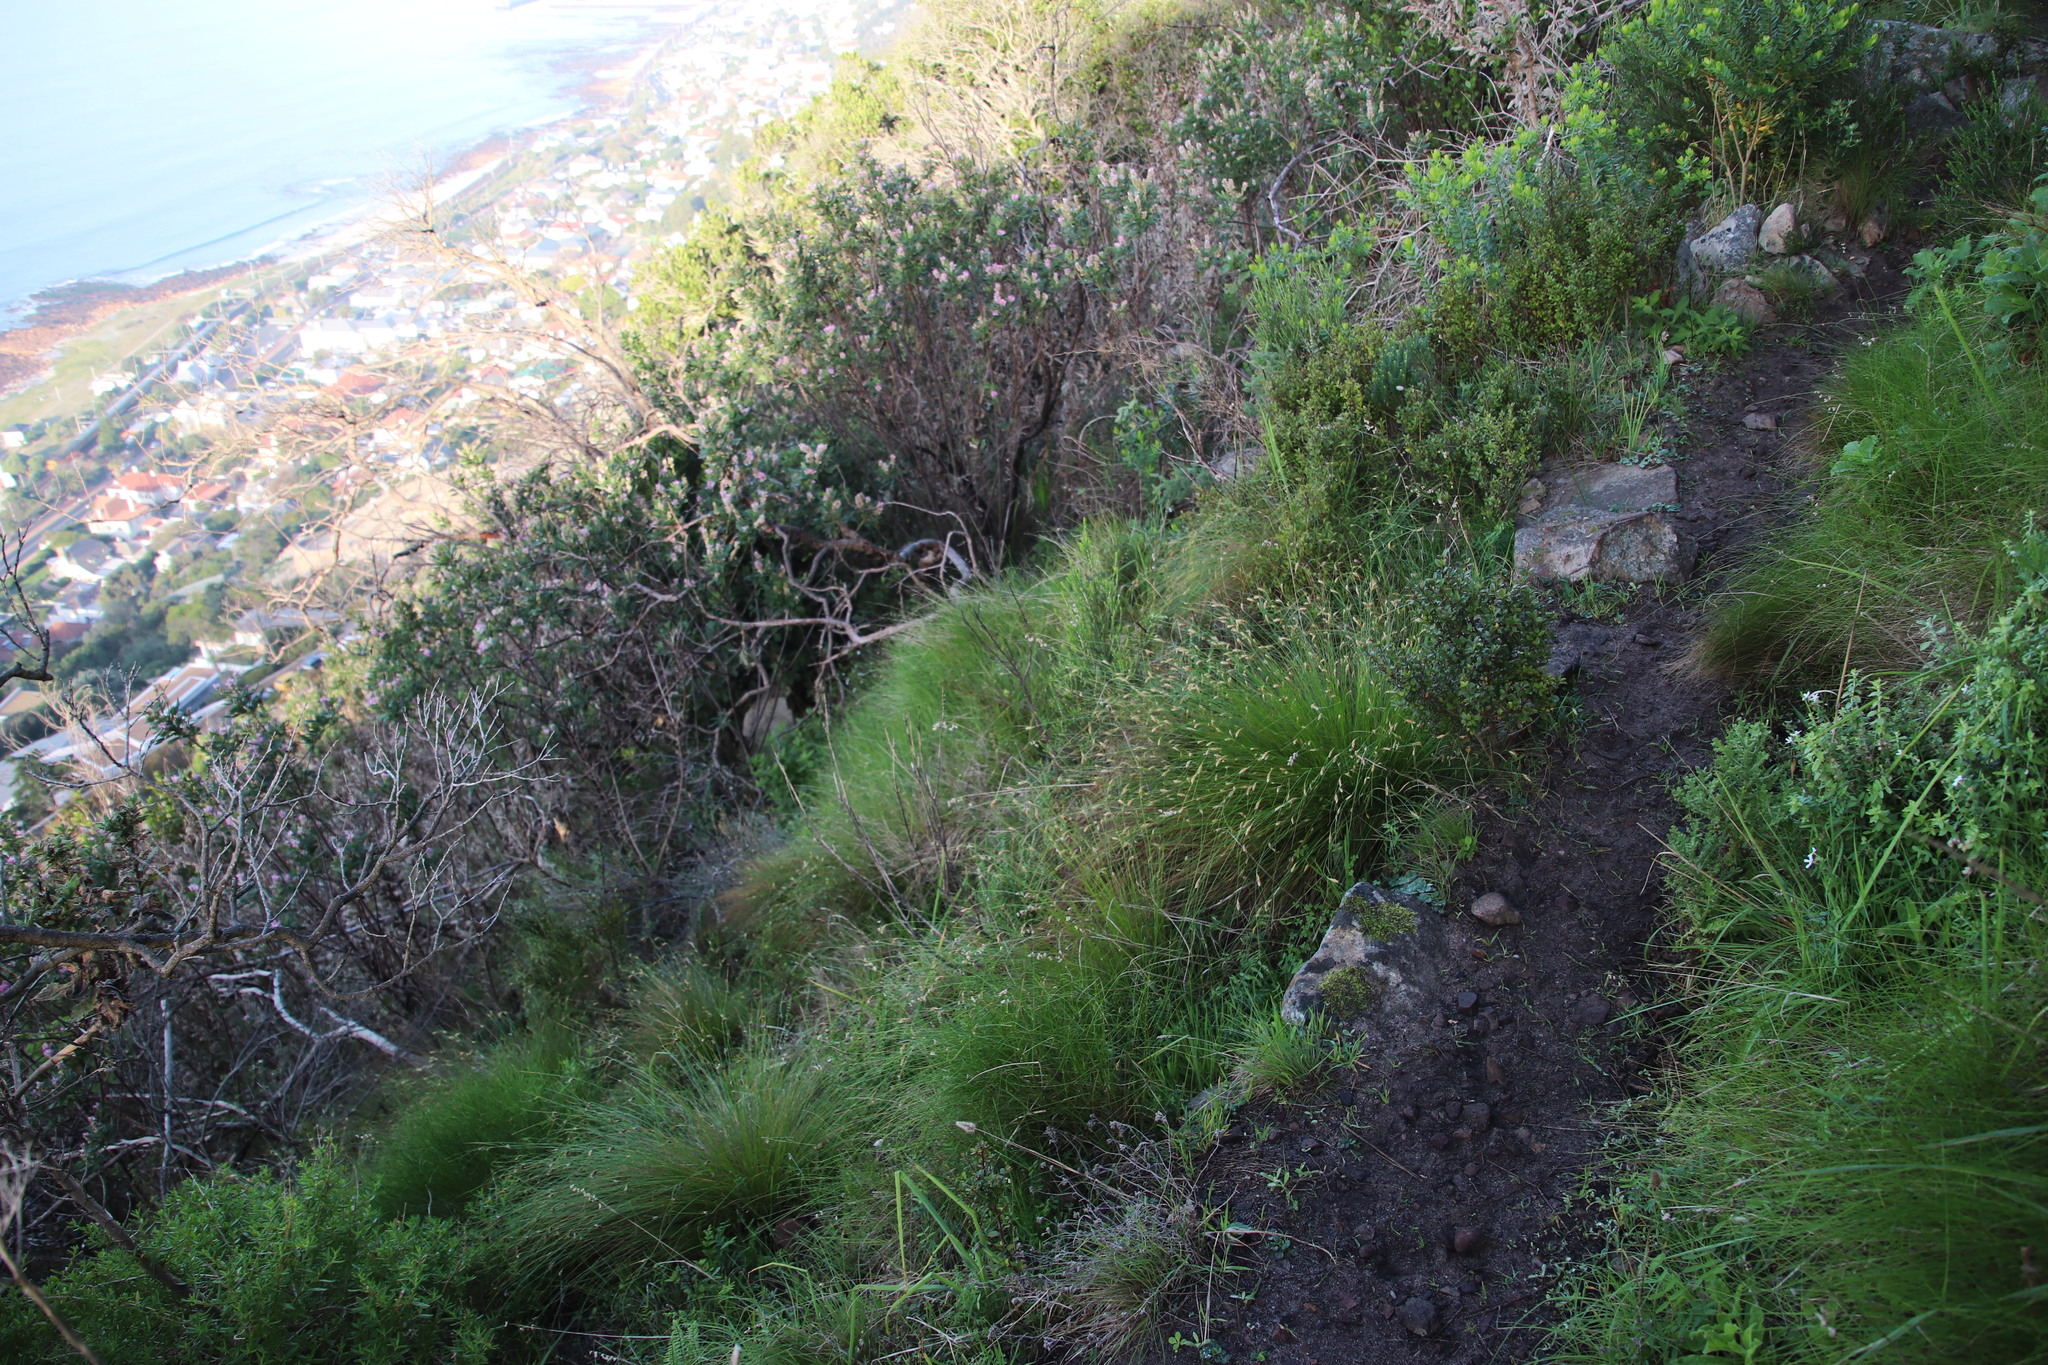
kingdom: Plantae
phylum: Tracheophyta
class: Liliopsida
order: Poales
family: Cyperaceae
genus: Ficinia
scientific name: Ficinia nigrescens
